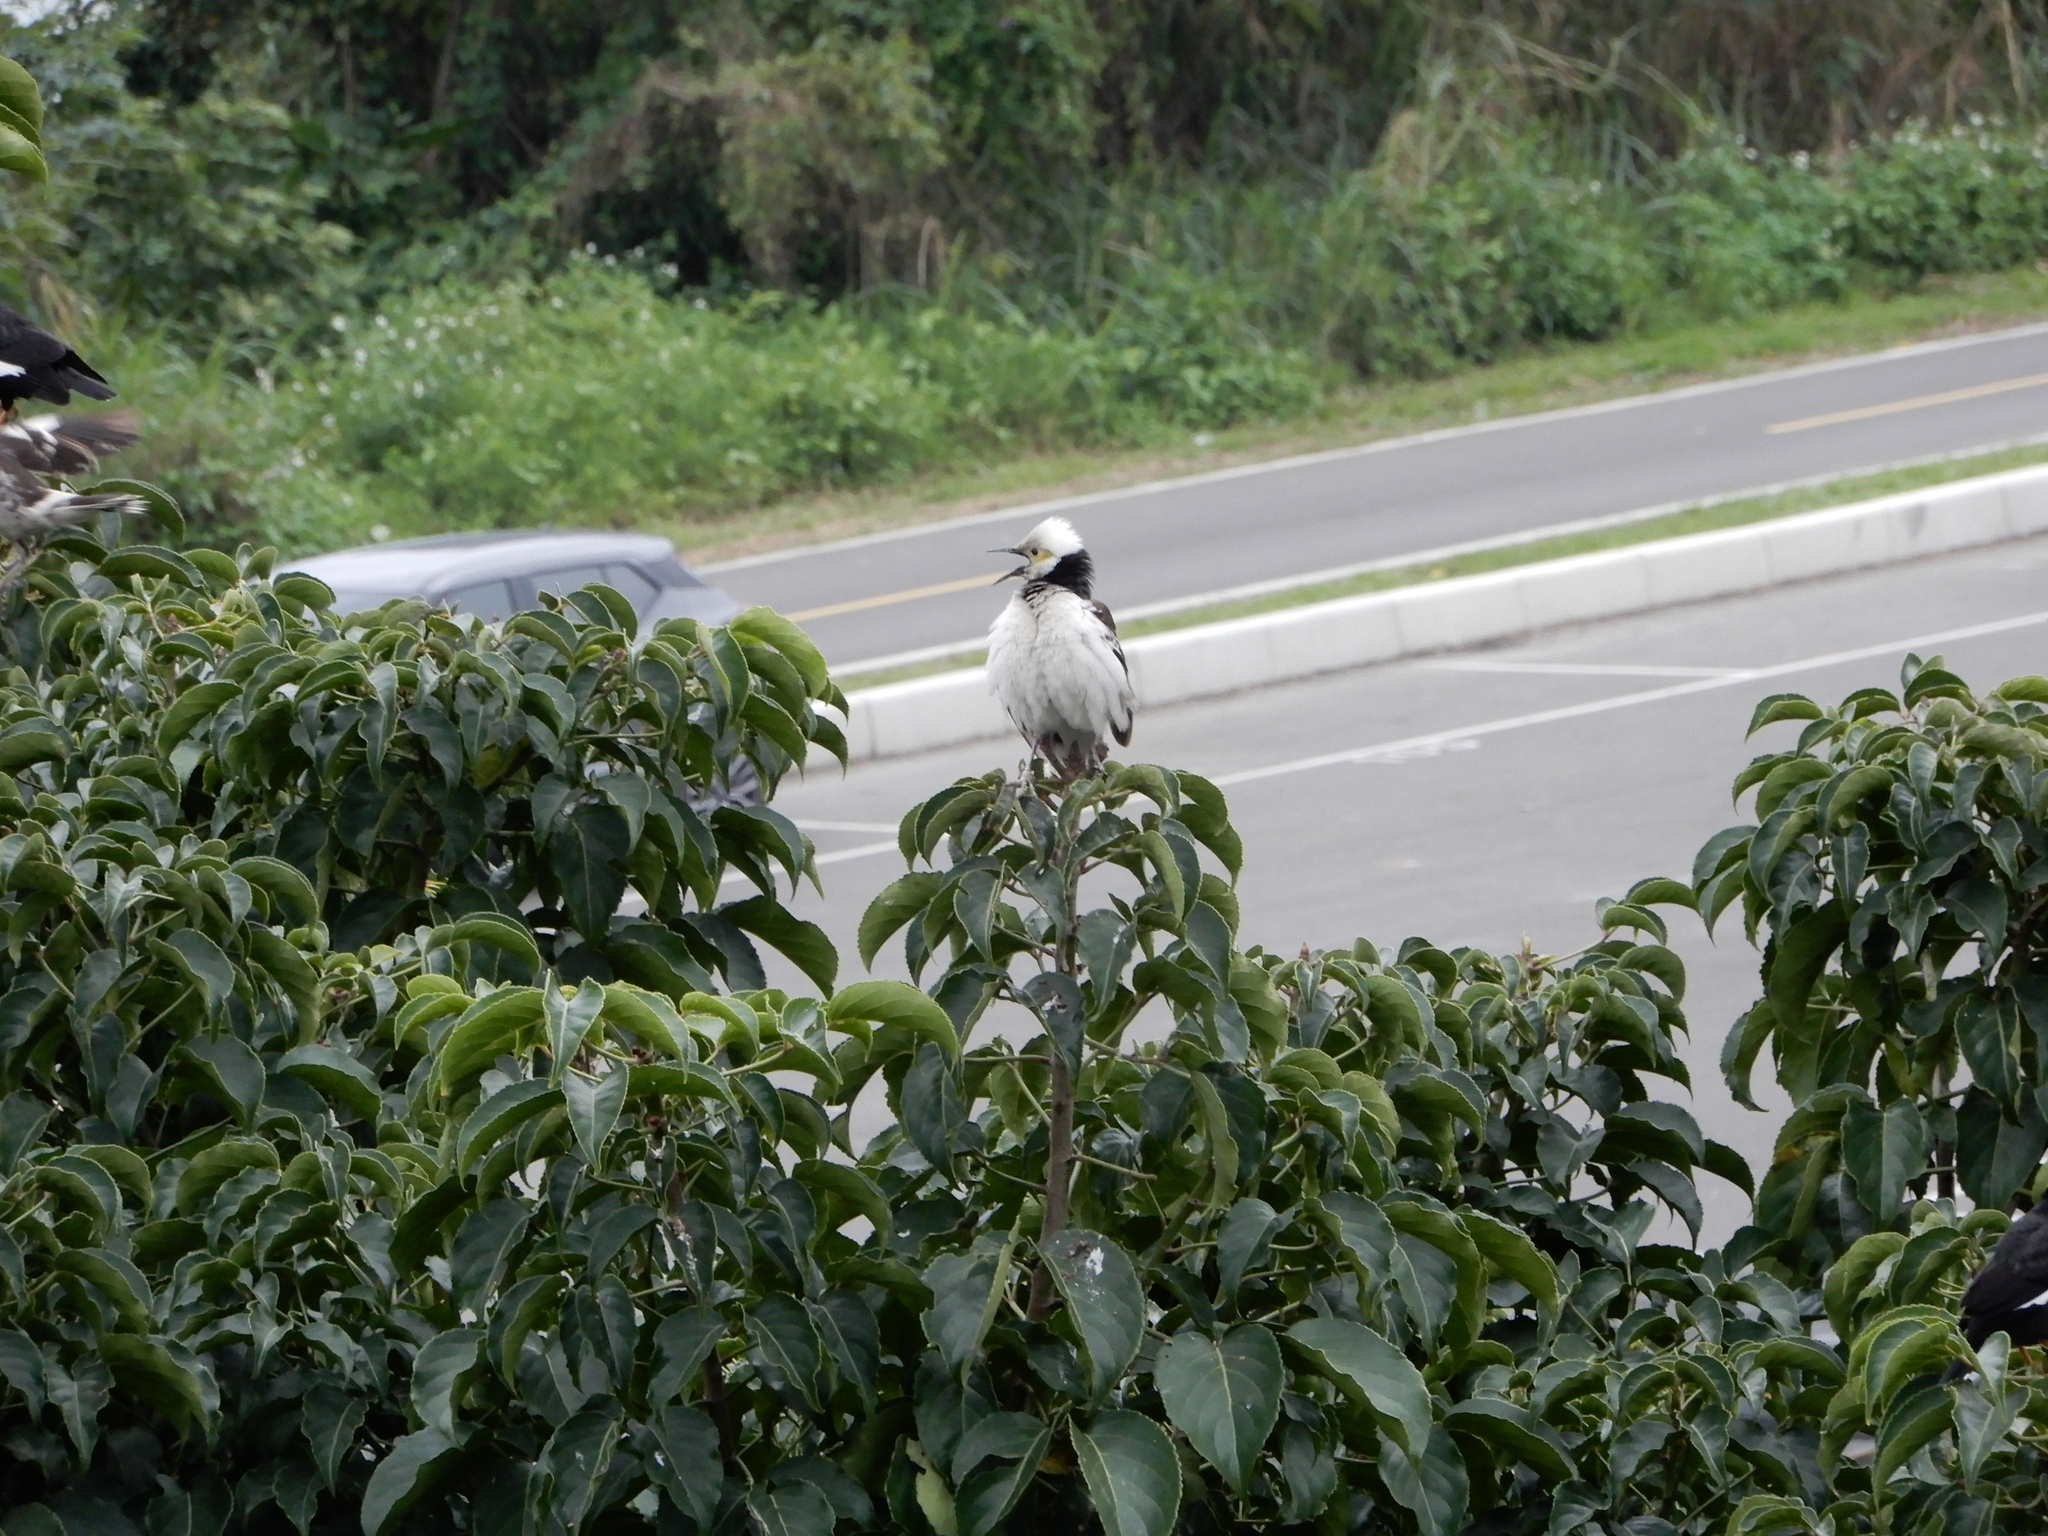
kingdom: Animalia
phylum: Chordata
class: Aves
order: Passeriformes
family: Sturnidae
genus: Gracupica
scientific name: Gracupica nigricollis
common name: Black-collared starling
